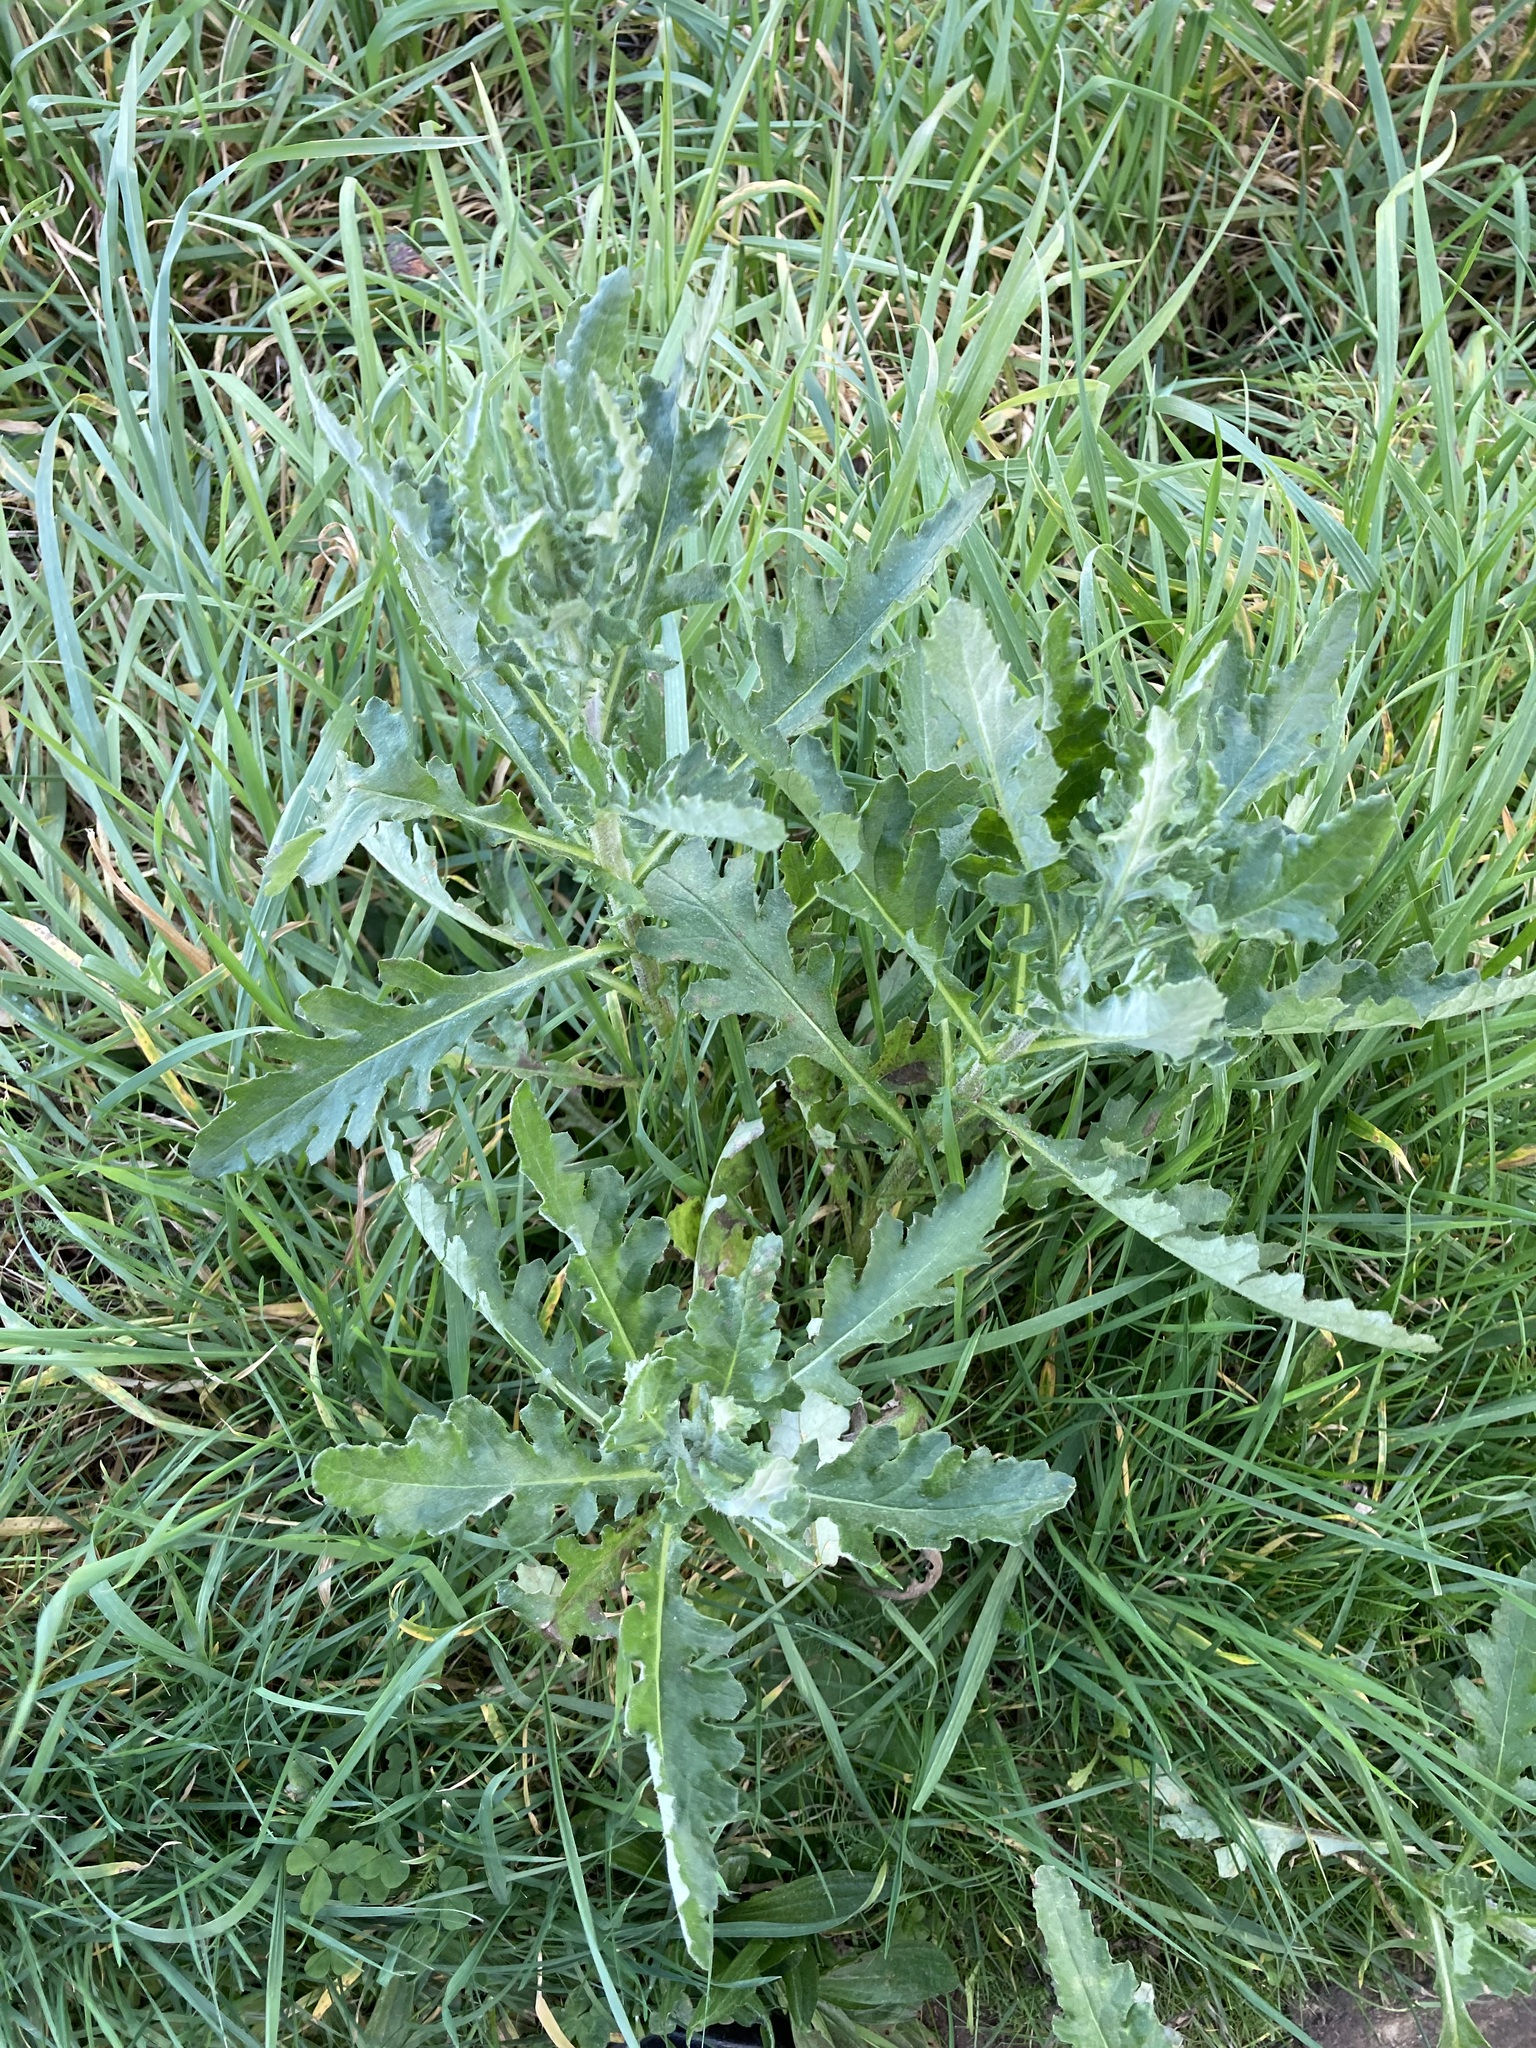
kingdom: Plantae
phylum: Tracheophyta
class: Magnoliopsida
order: Asterales
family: Asteraceae
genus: Senecio
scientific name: Senecio glomeratus
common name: Cutleaf burnweed
